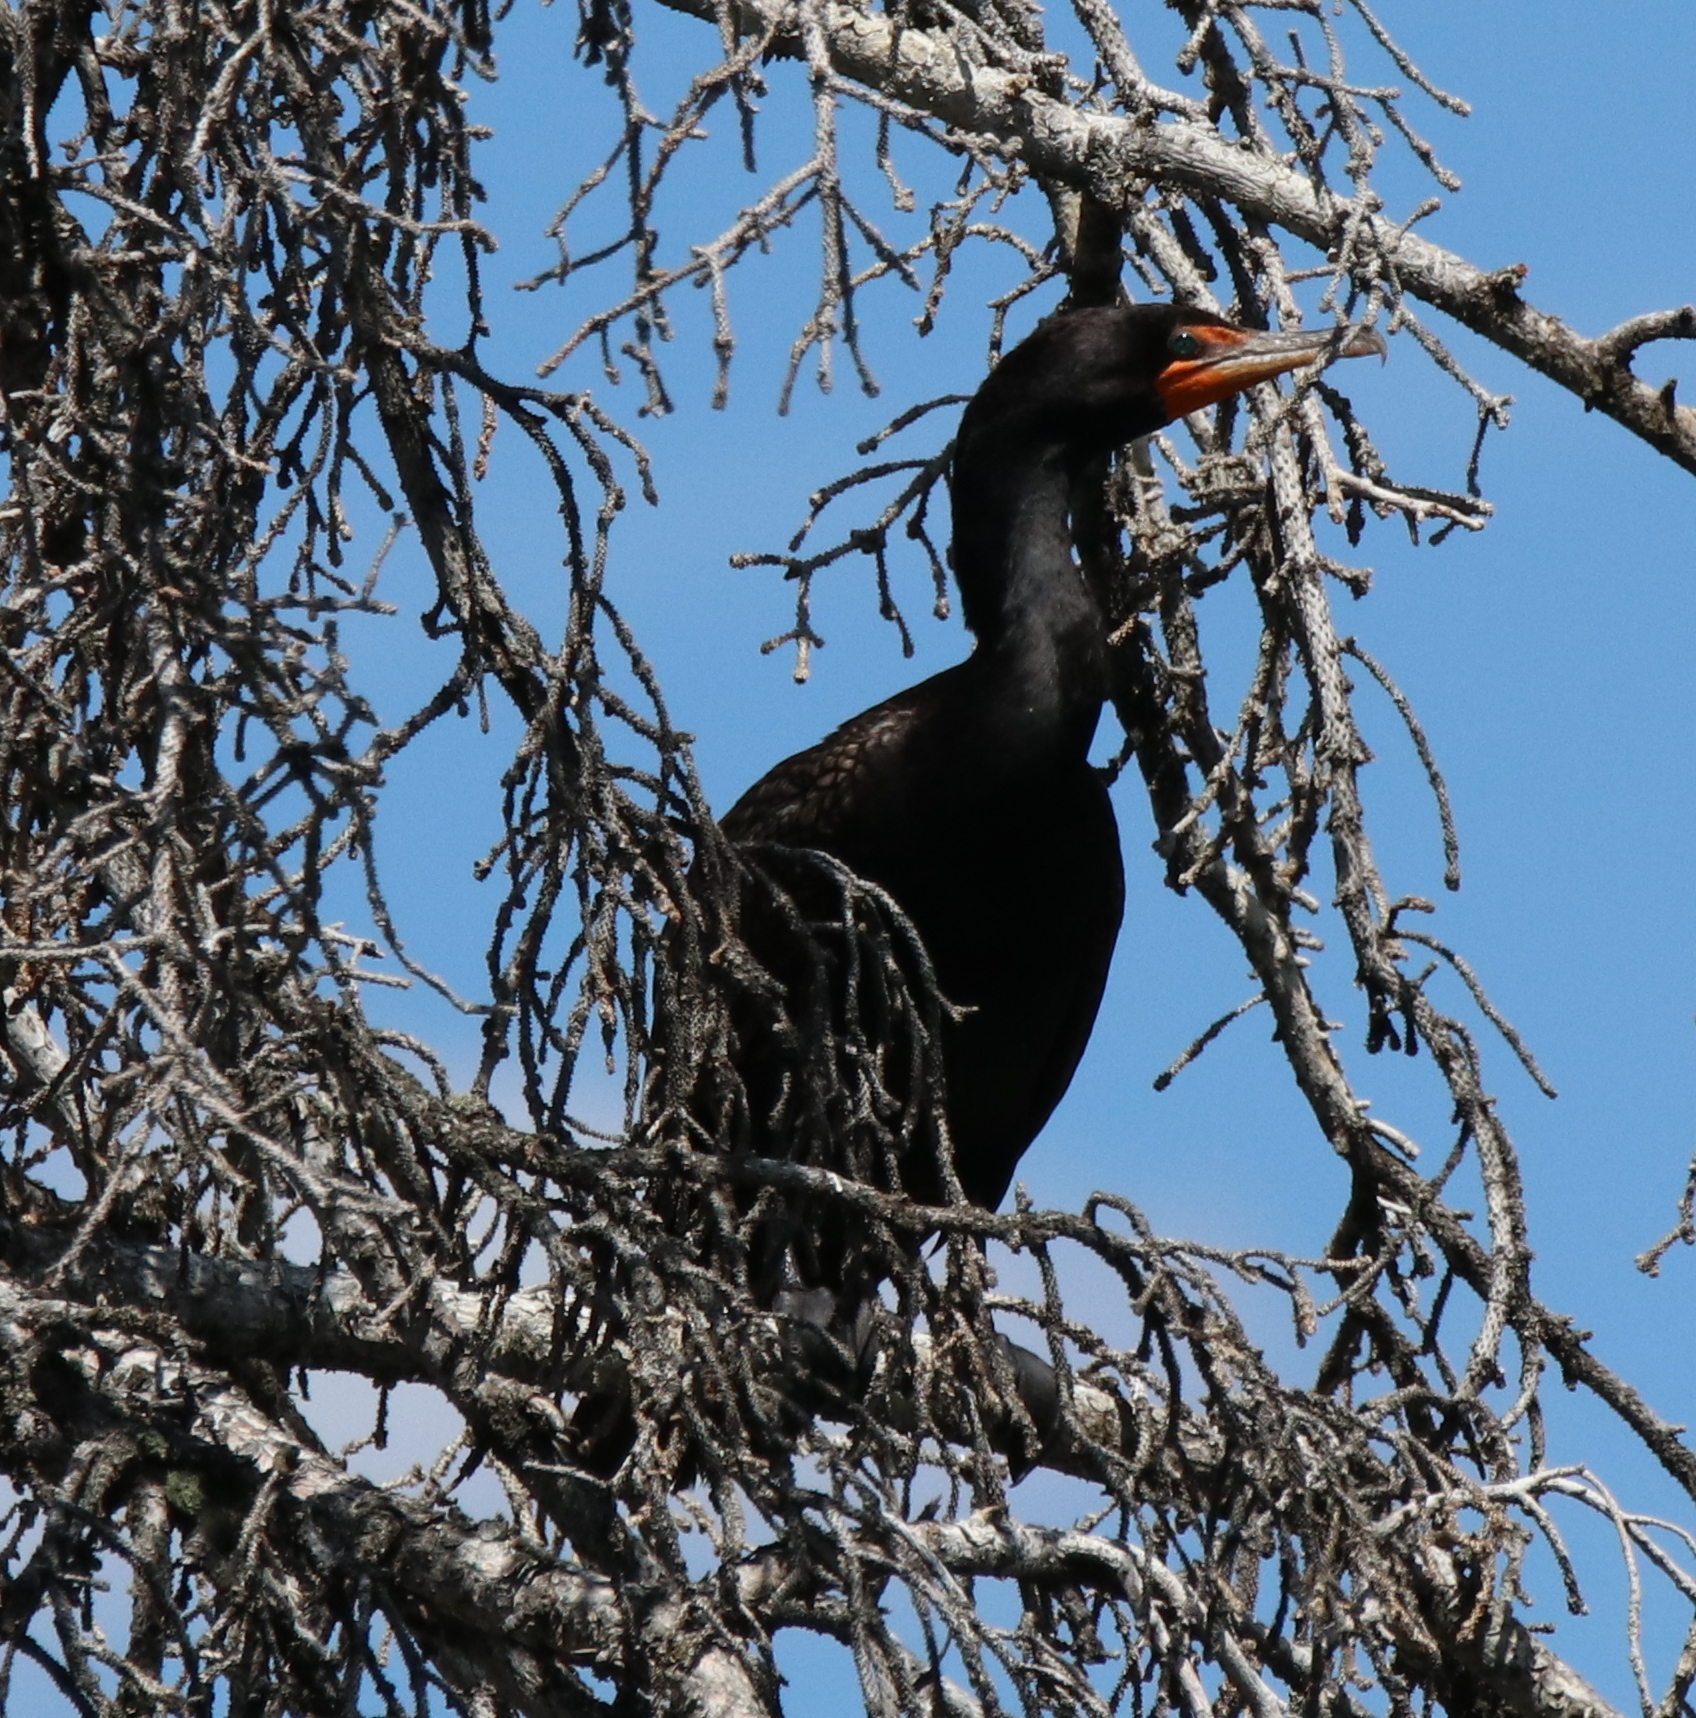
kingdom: Animalia
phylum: Chordata
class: Aves
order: Suliformes
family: Phalacrocoracidae
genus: Phalacrocorax
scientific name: Phalacrocorax auritus
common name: Double-crested cormorant
